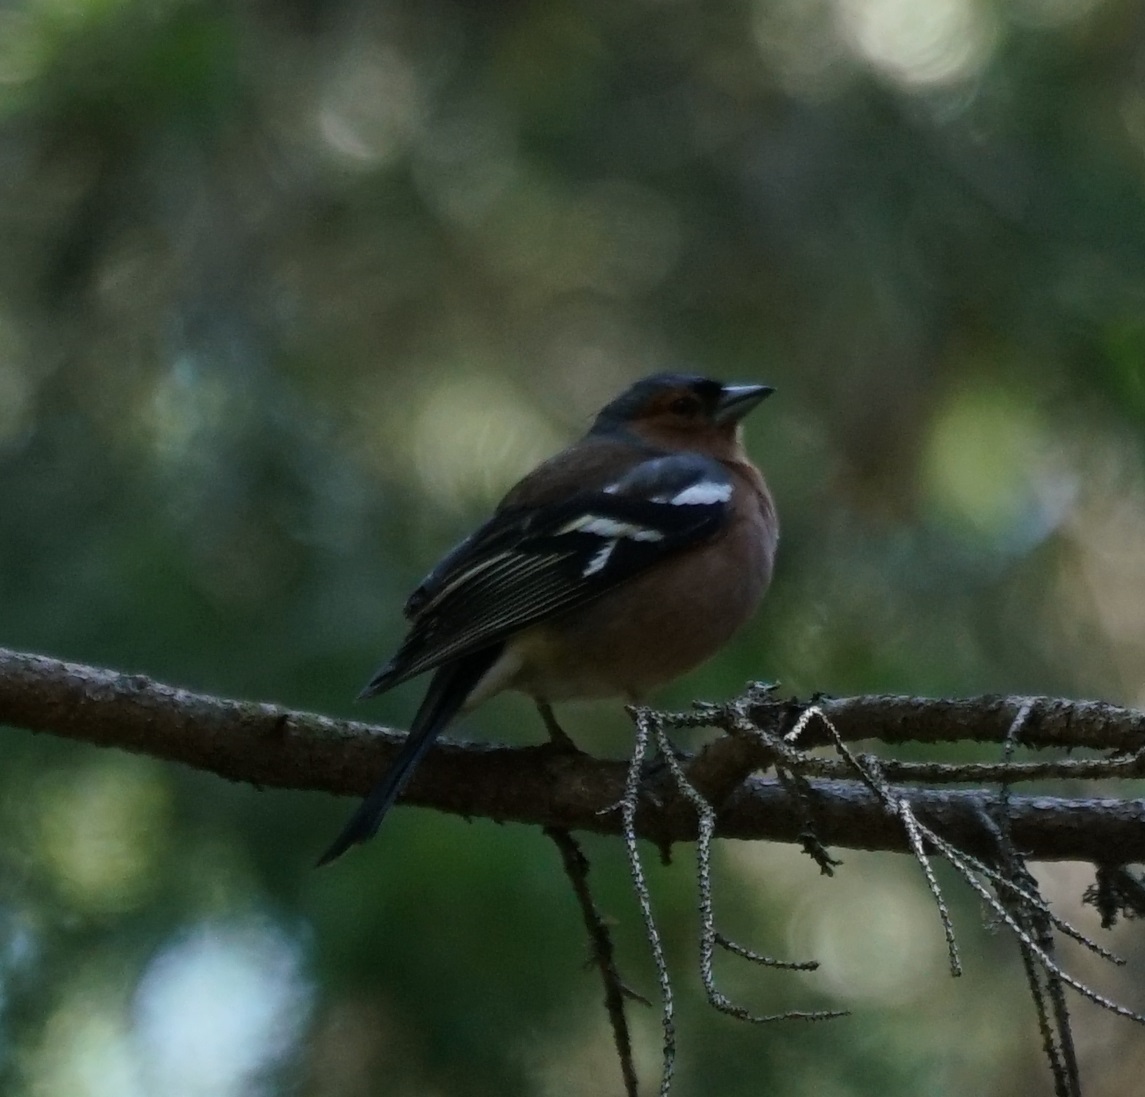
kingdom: Animalia
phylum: Chordata
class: Aves
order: Passeriformes
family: Fringillidae
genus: Fringilla
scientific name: Fringilla coelebs
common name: Common chaffinch
